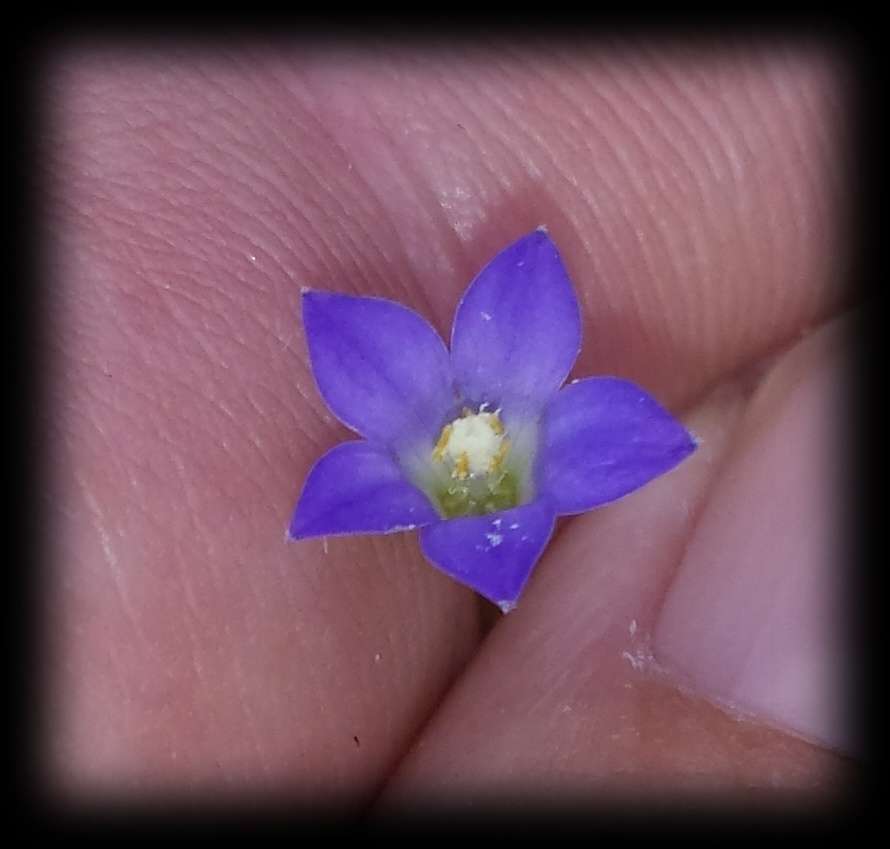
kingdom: Plantae
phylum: Tracheophyta
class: Magnoliopsida
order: Asterales
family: Campanulaceae
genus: Wahlenbergia
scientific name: Wahlenbergia gracilenta
